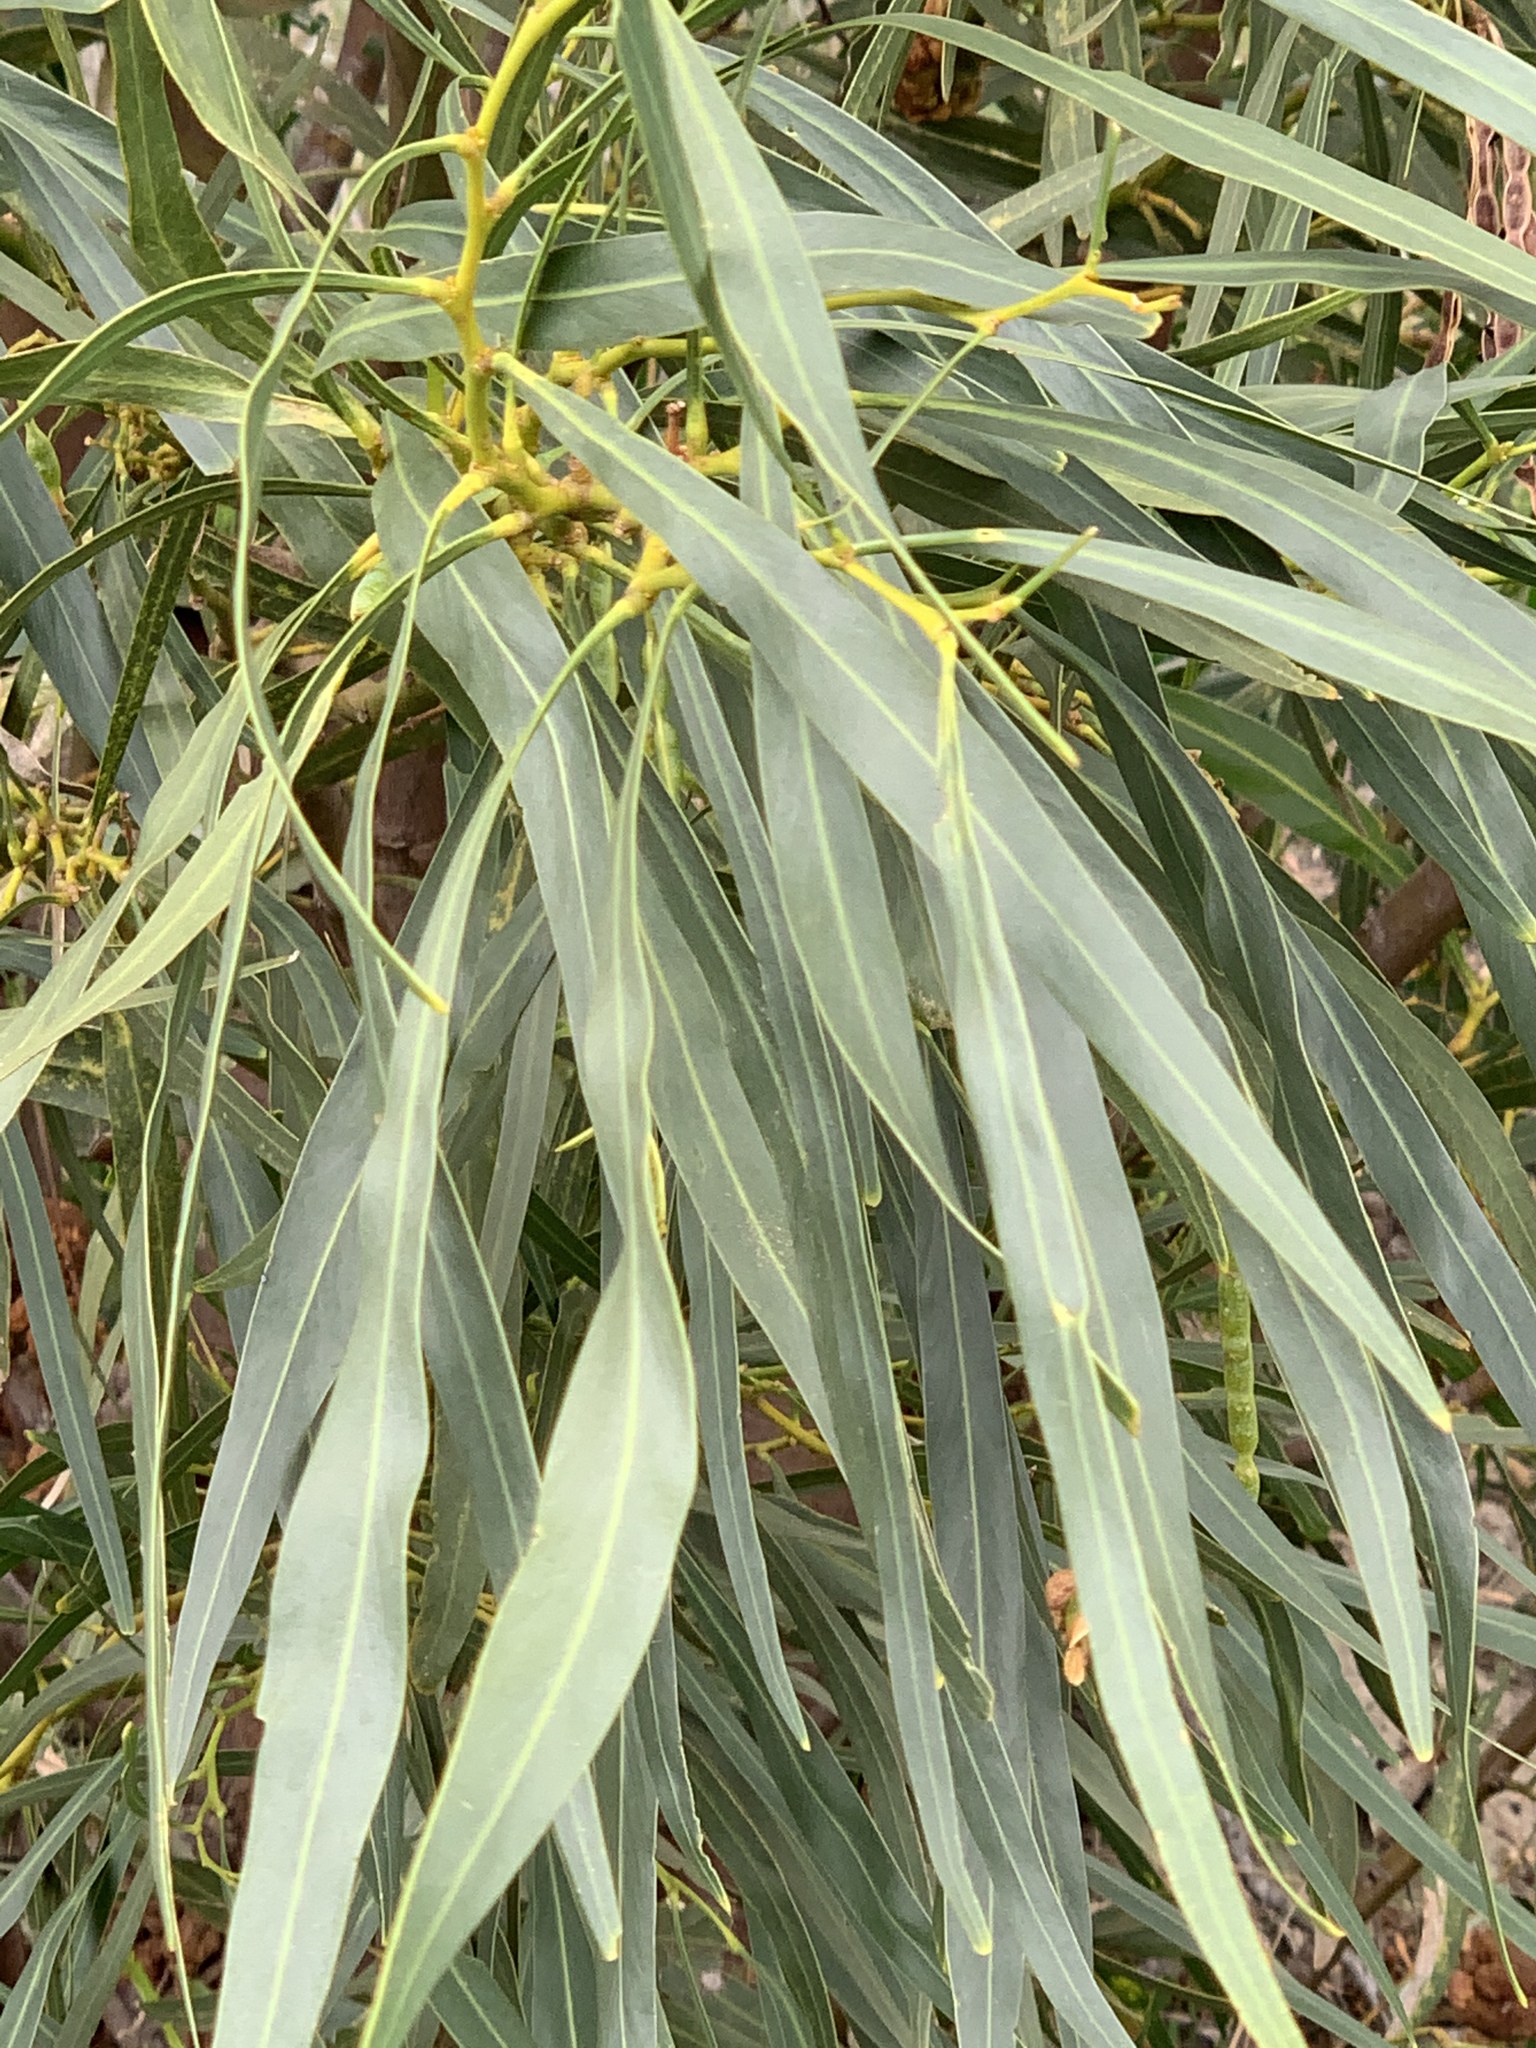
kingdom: Plantae
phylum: Tracheophyta
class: Magnoliopsida
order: Fabales
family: Fabaceae
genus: Acacia
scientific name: Acacia saligna
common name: Orange wattle
